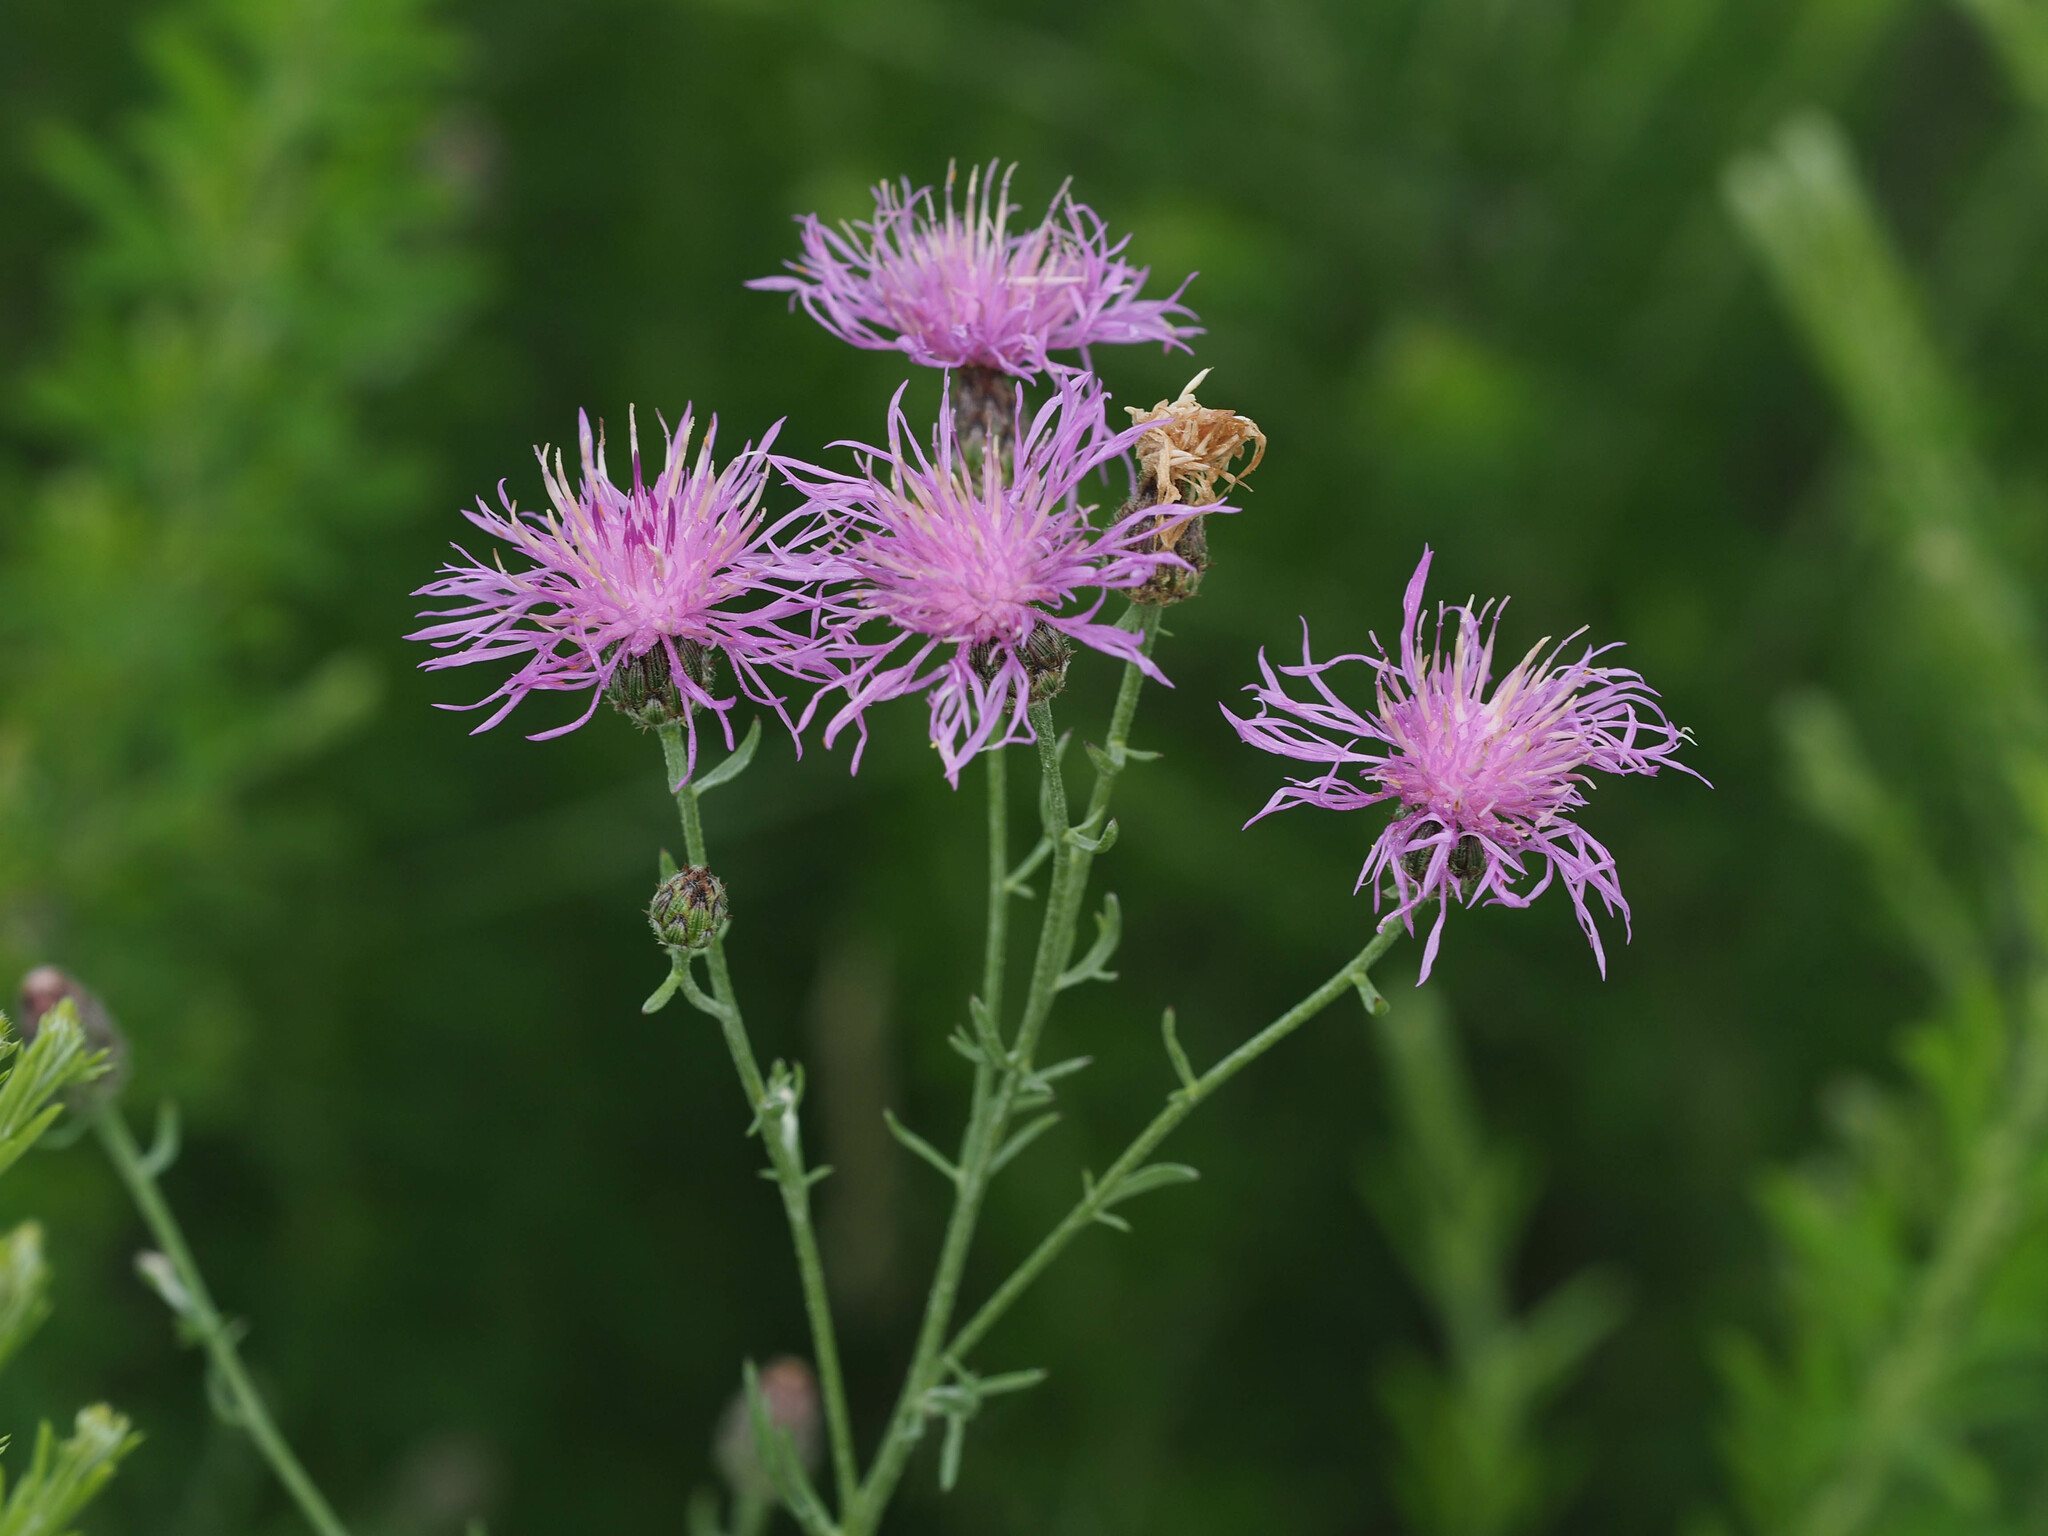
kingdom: Plantae
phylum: Tracheophyta
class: Magnoliopsida
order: Asterales
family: Asteraceae
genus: Centaurea
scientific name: Centaurea stoebe
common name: Spotted knapweed
